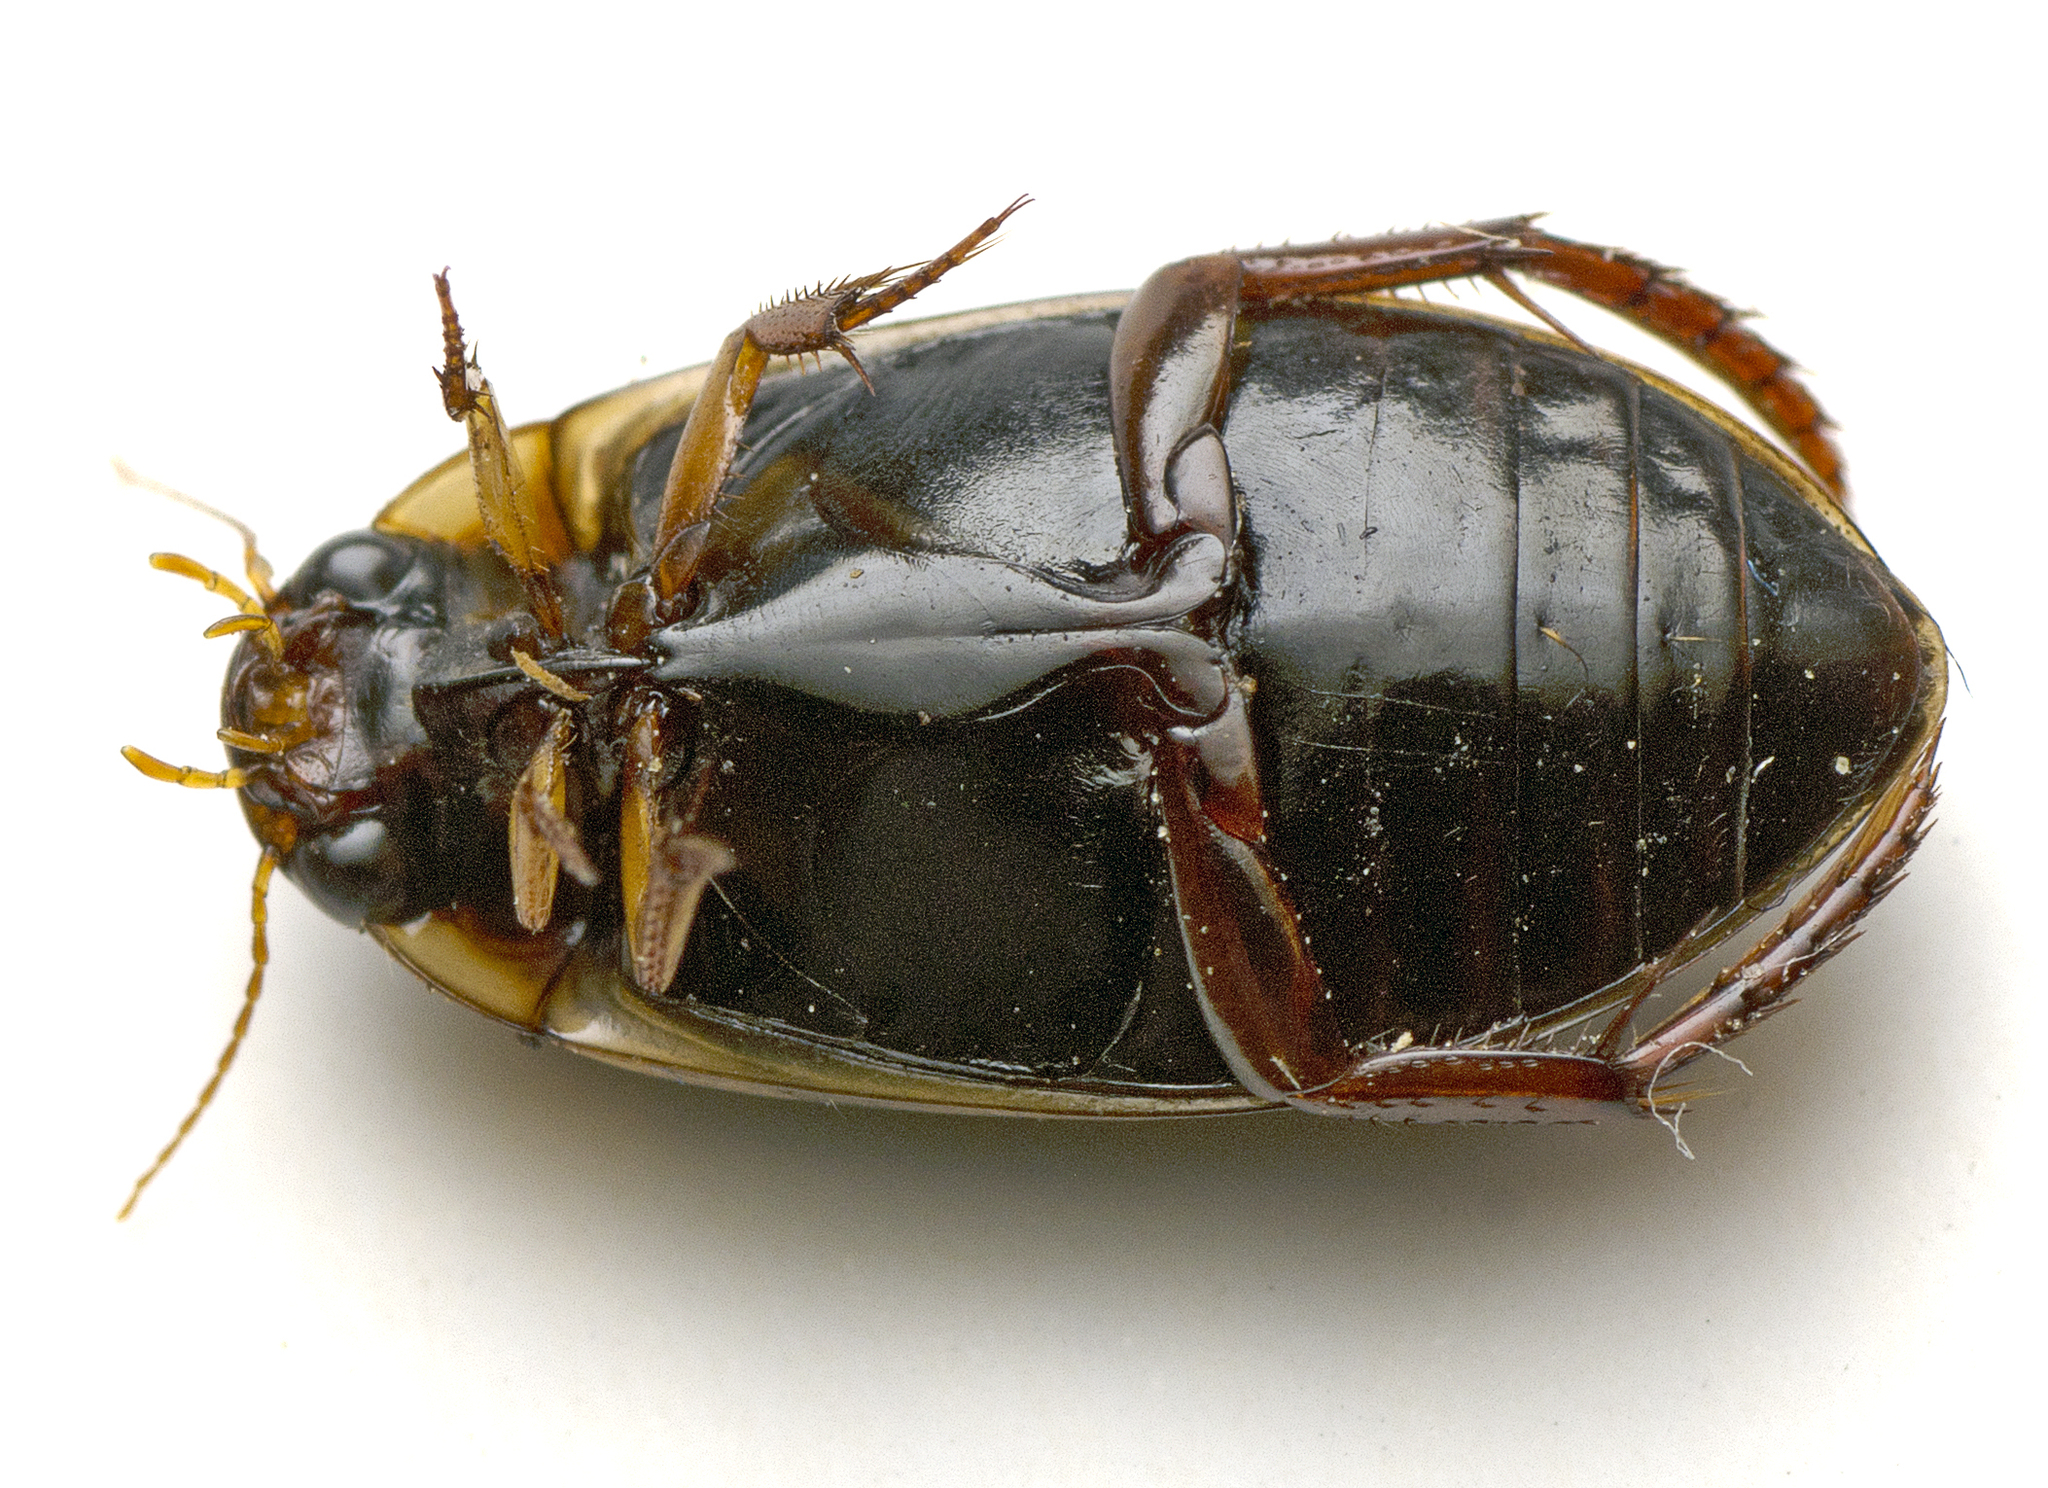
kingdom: Animalia
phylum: Arthropoda
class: Insecta
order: Coleoptera
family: Dytiscidae
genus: Rhantus
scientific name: Rhantus suturalis
